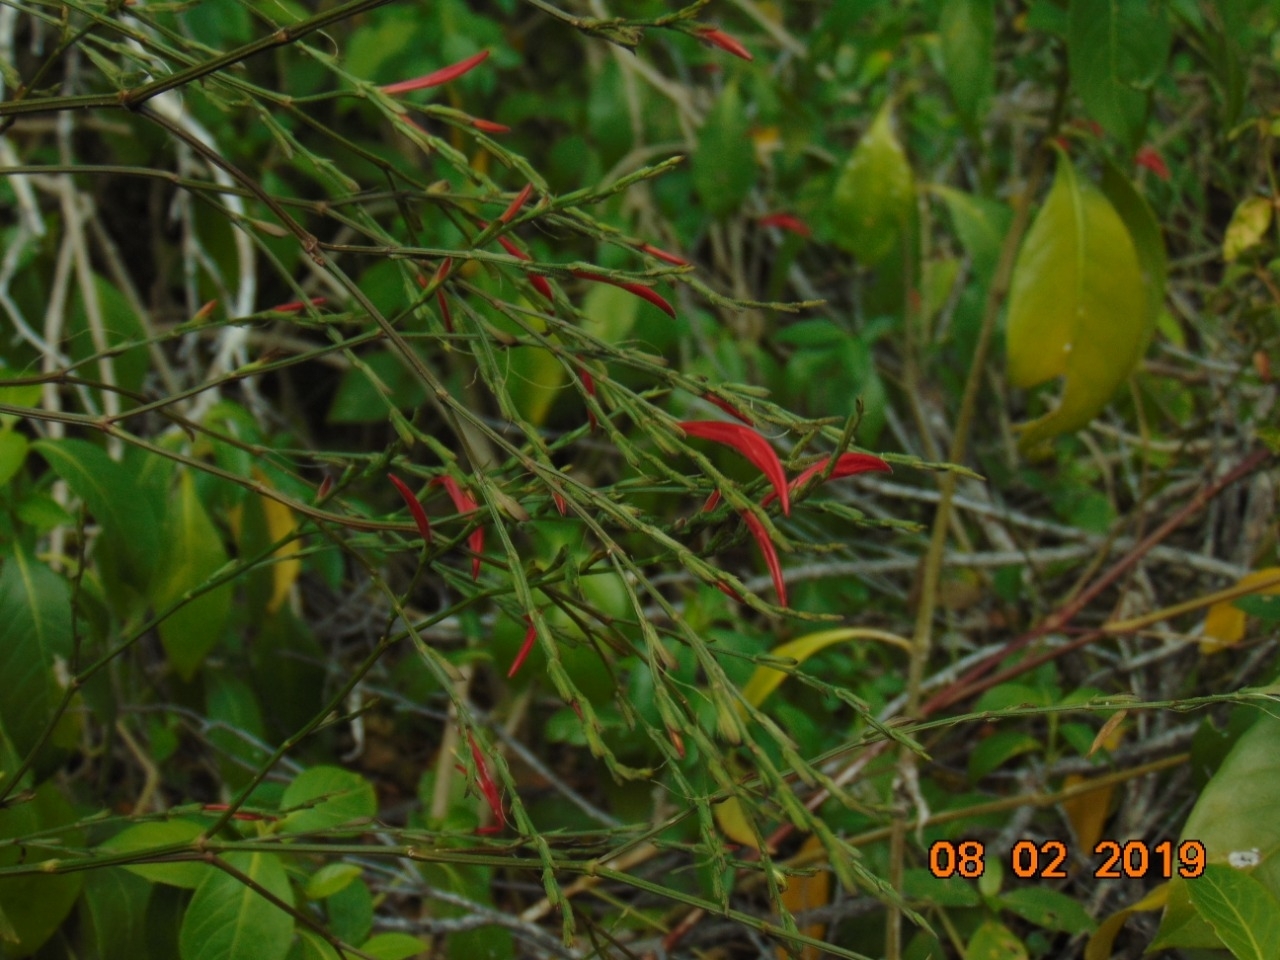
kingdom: Plantae
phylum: Tracheophyta
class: Magnoliopsida
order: Lamiales
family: Acanthaceae
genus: Dicliptera
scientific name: Dicliptera sexangularis
